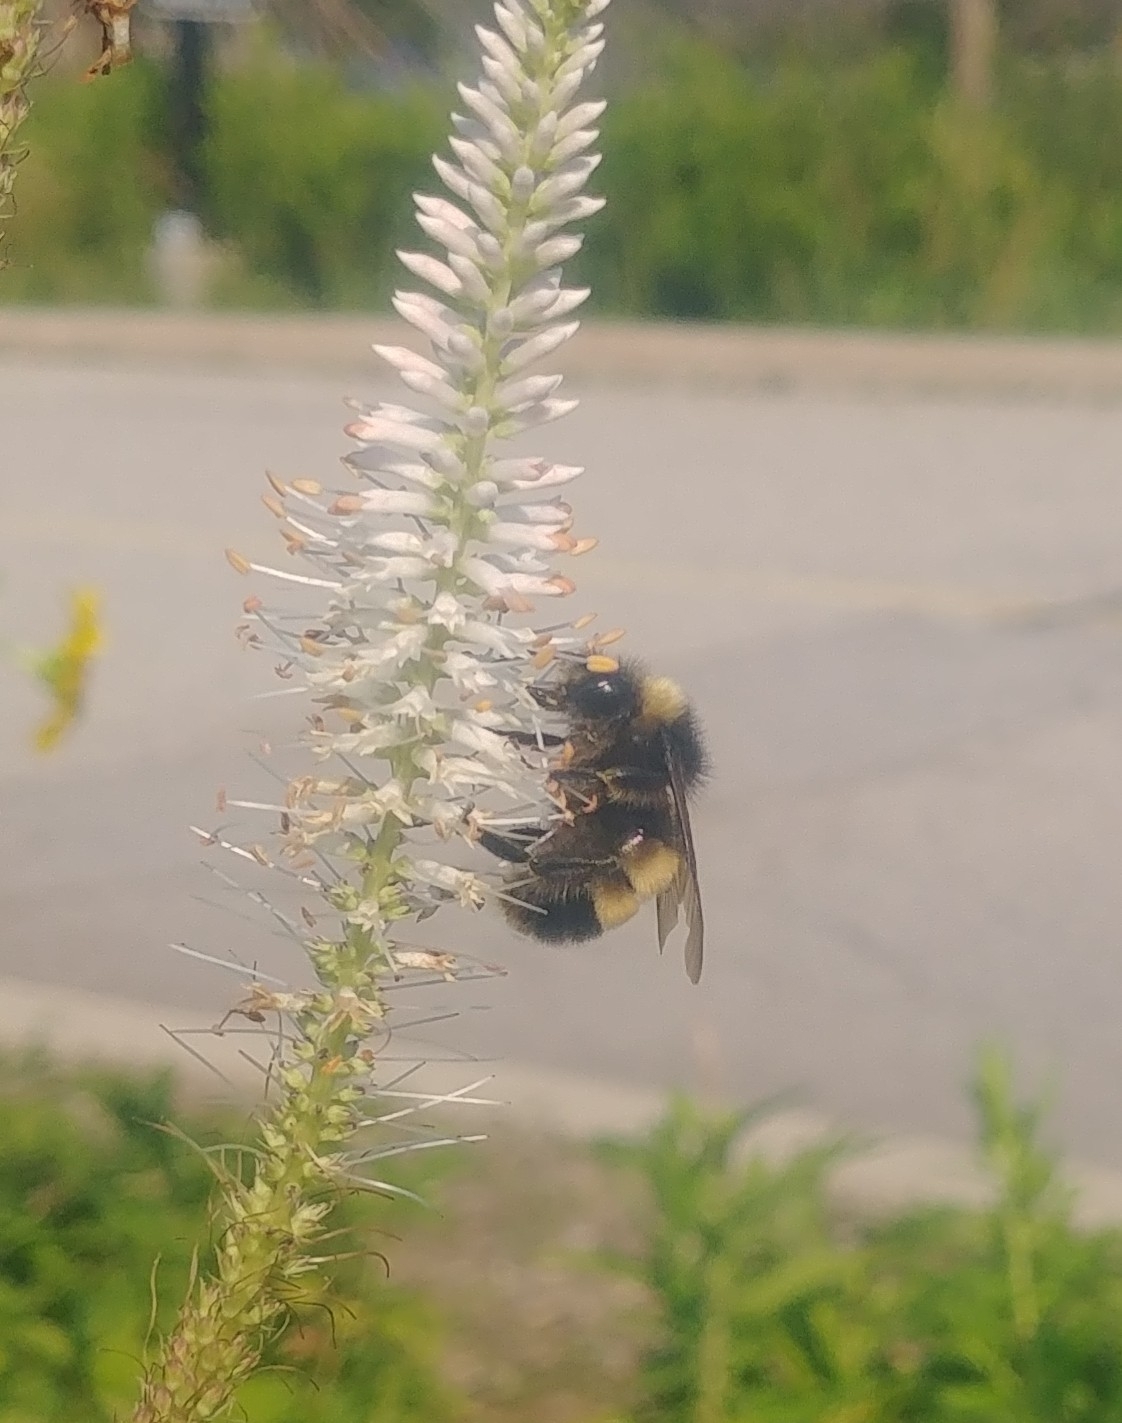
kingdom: Animalia
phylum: Arthropoda
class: Insecta
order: Hymenoptera
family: Apidae
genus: Bombus
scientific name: Bombus terricola
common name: Yellow-banded bumble bee
